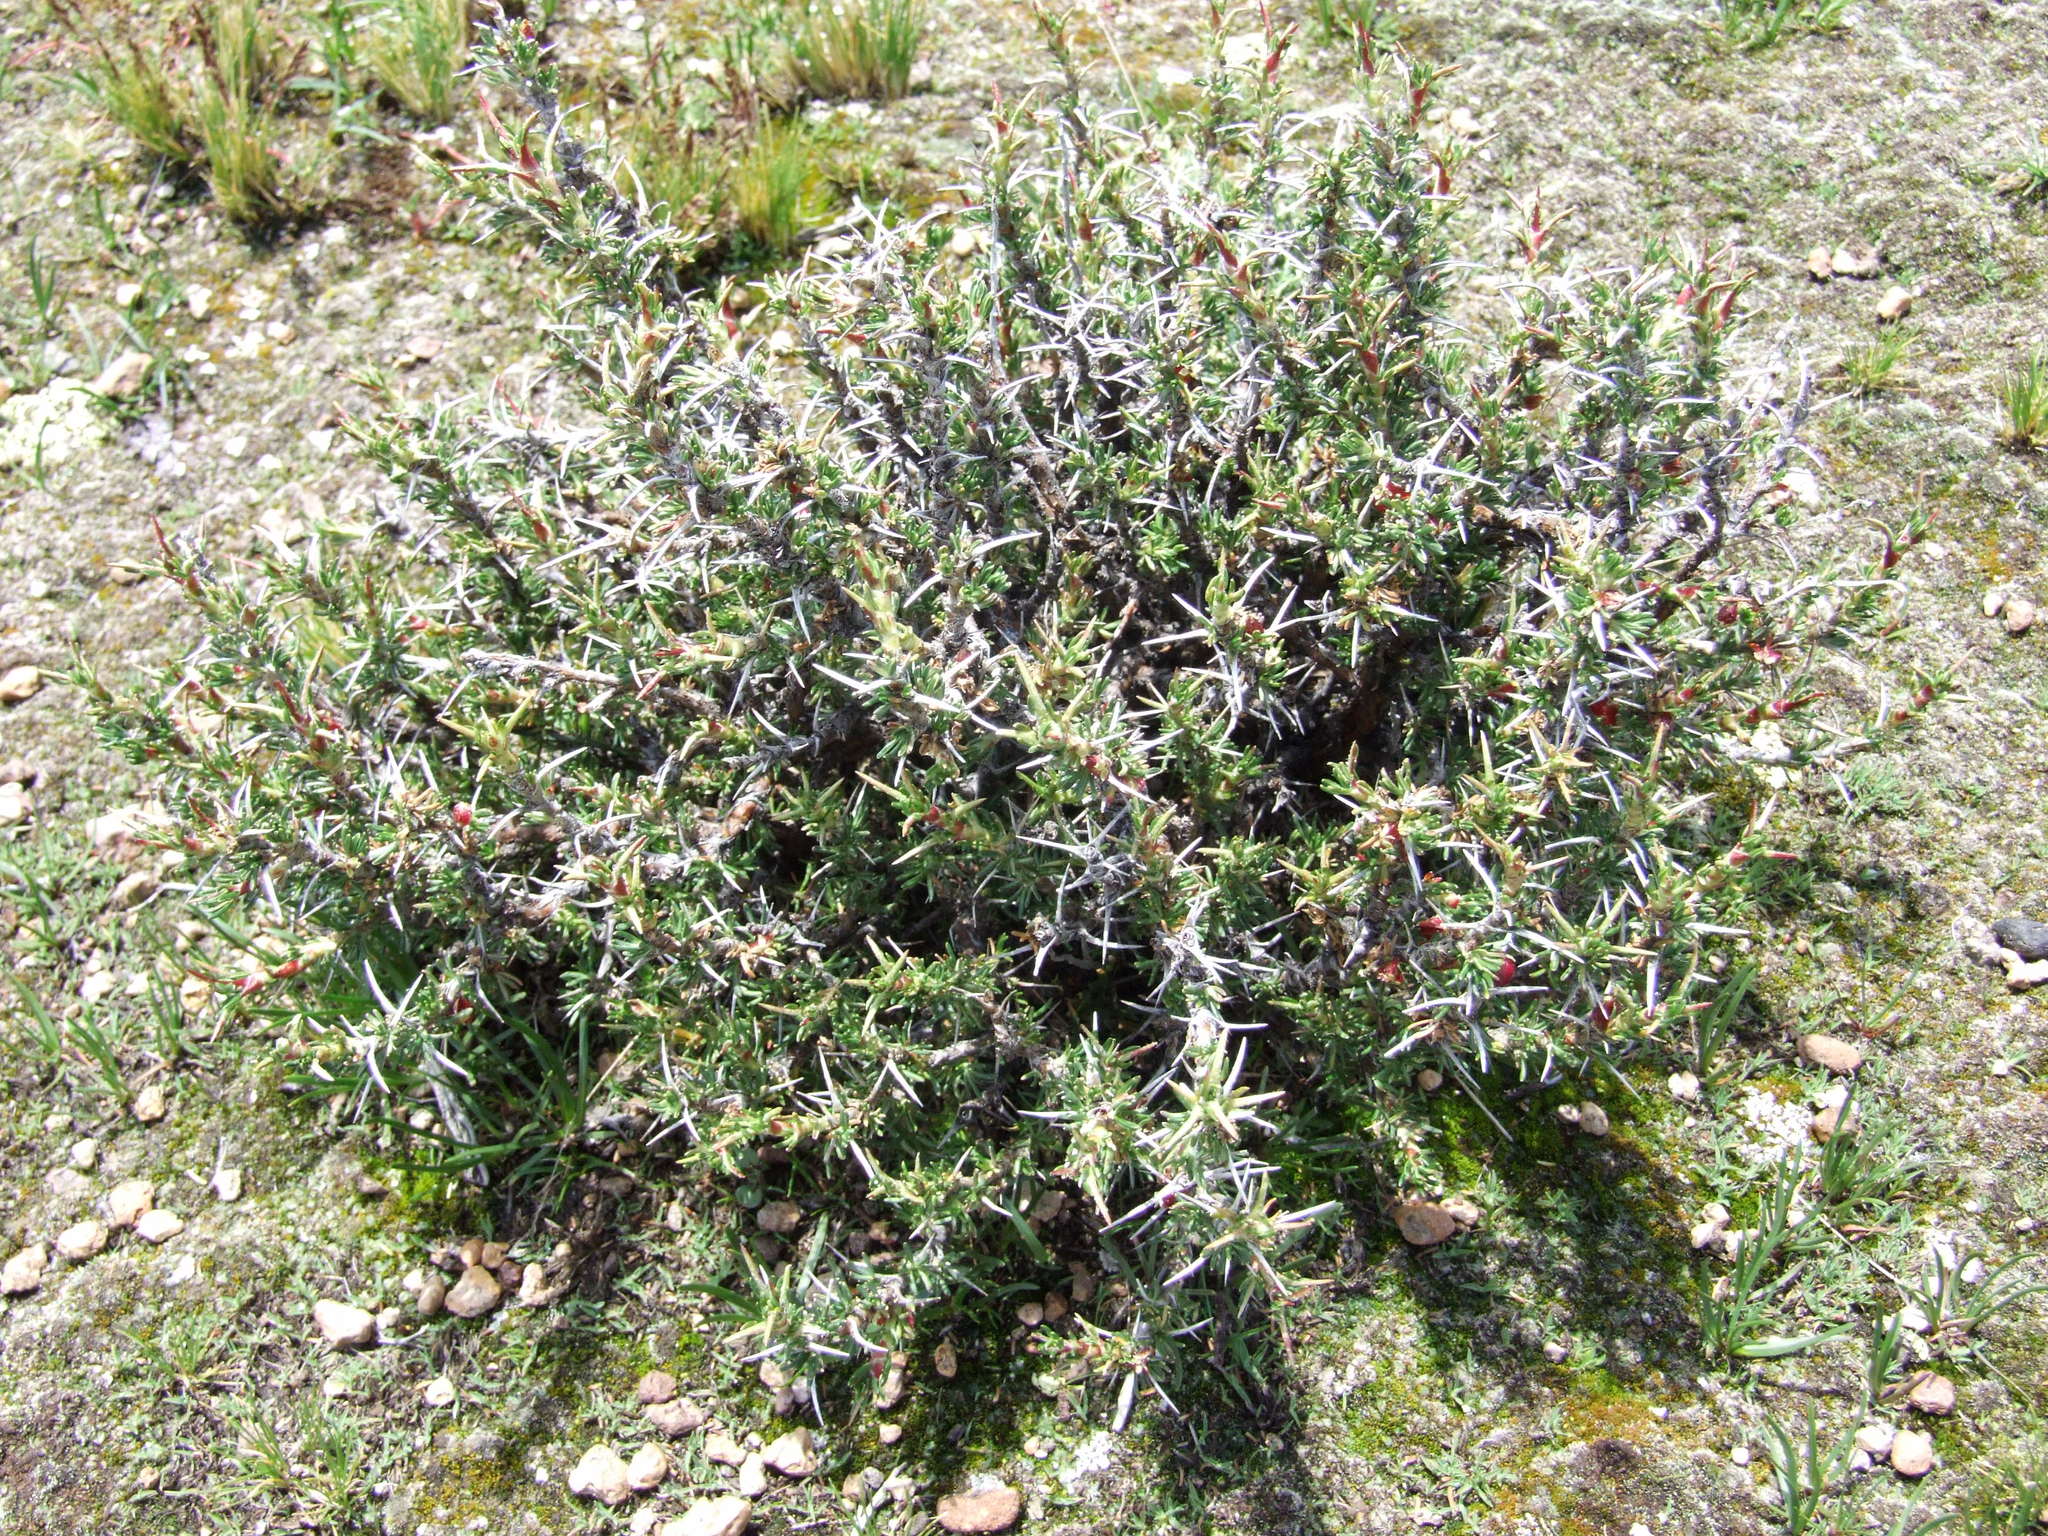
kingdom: Plantae
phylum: Tracheophyta
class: Magnoliopsida
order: Rosales
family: Rosaceae
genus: Margyricarpus
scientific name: Margyricarpus cristatus
